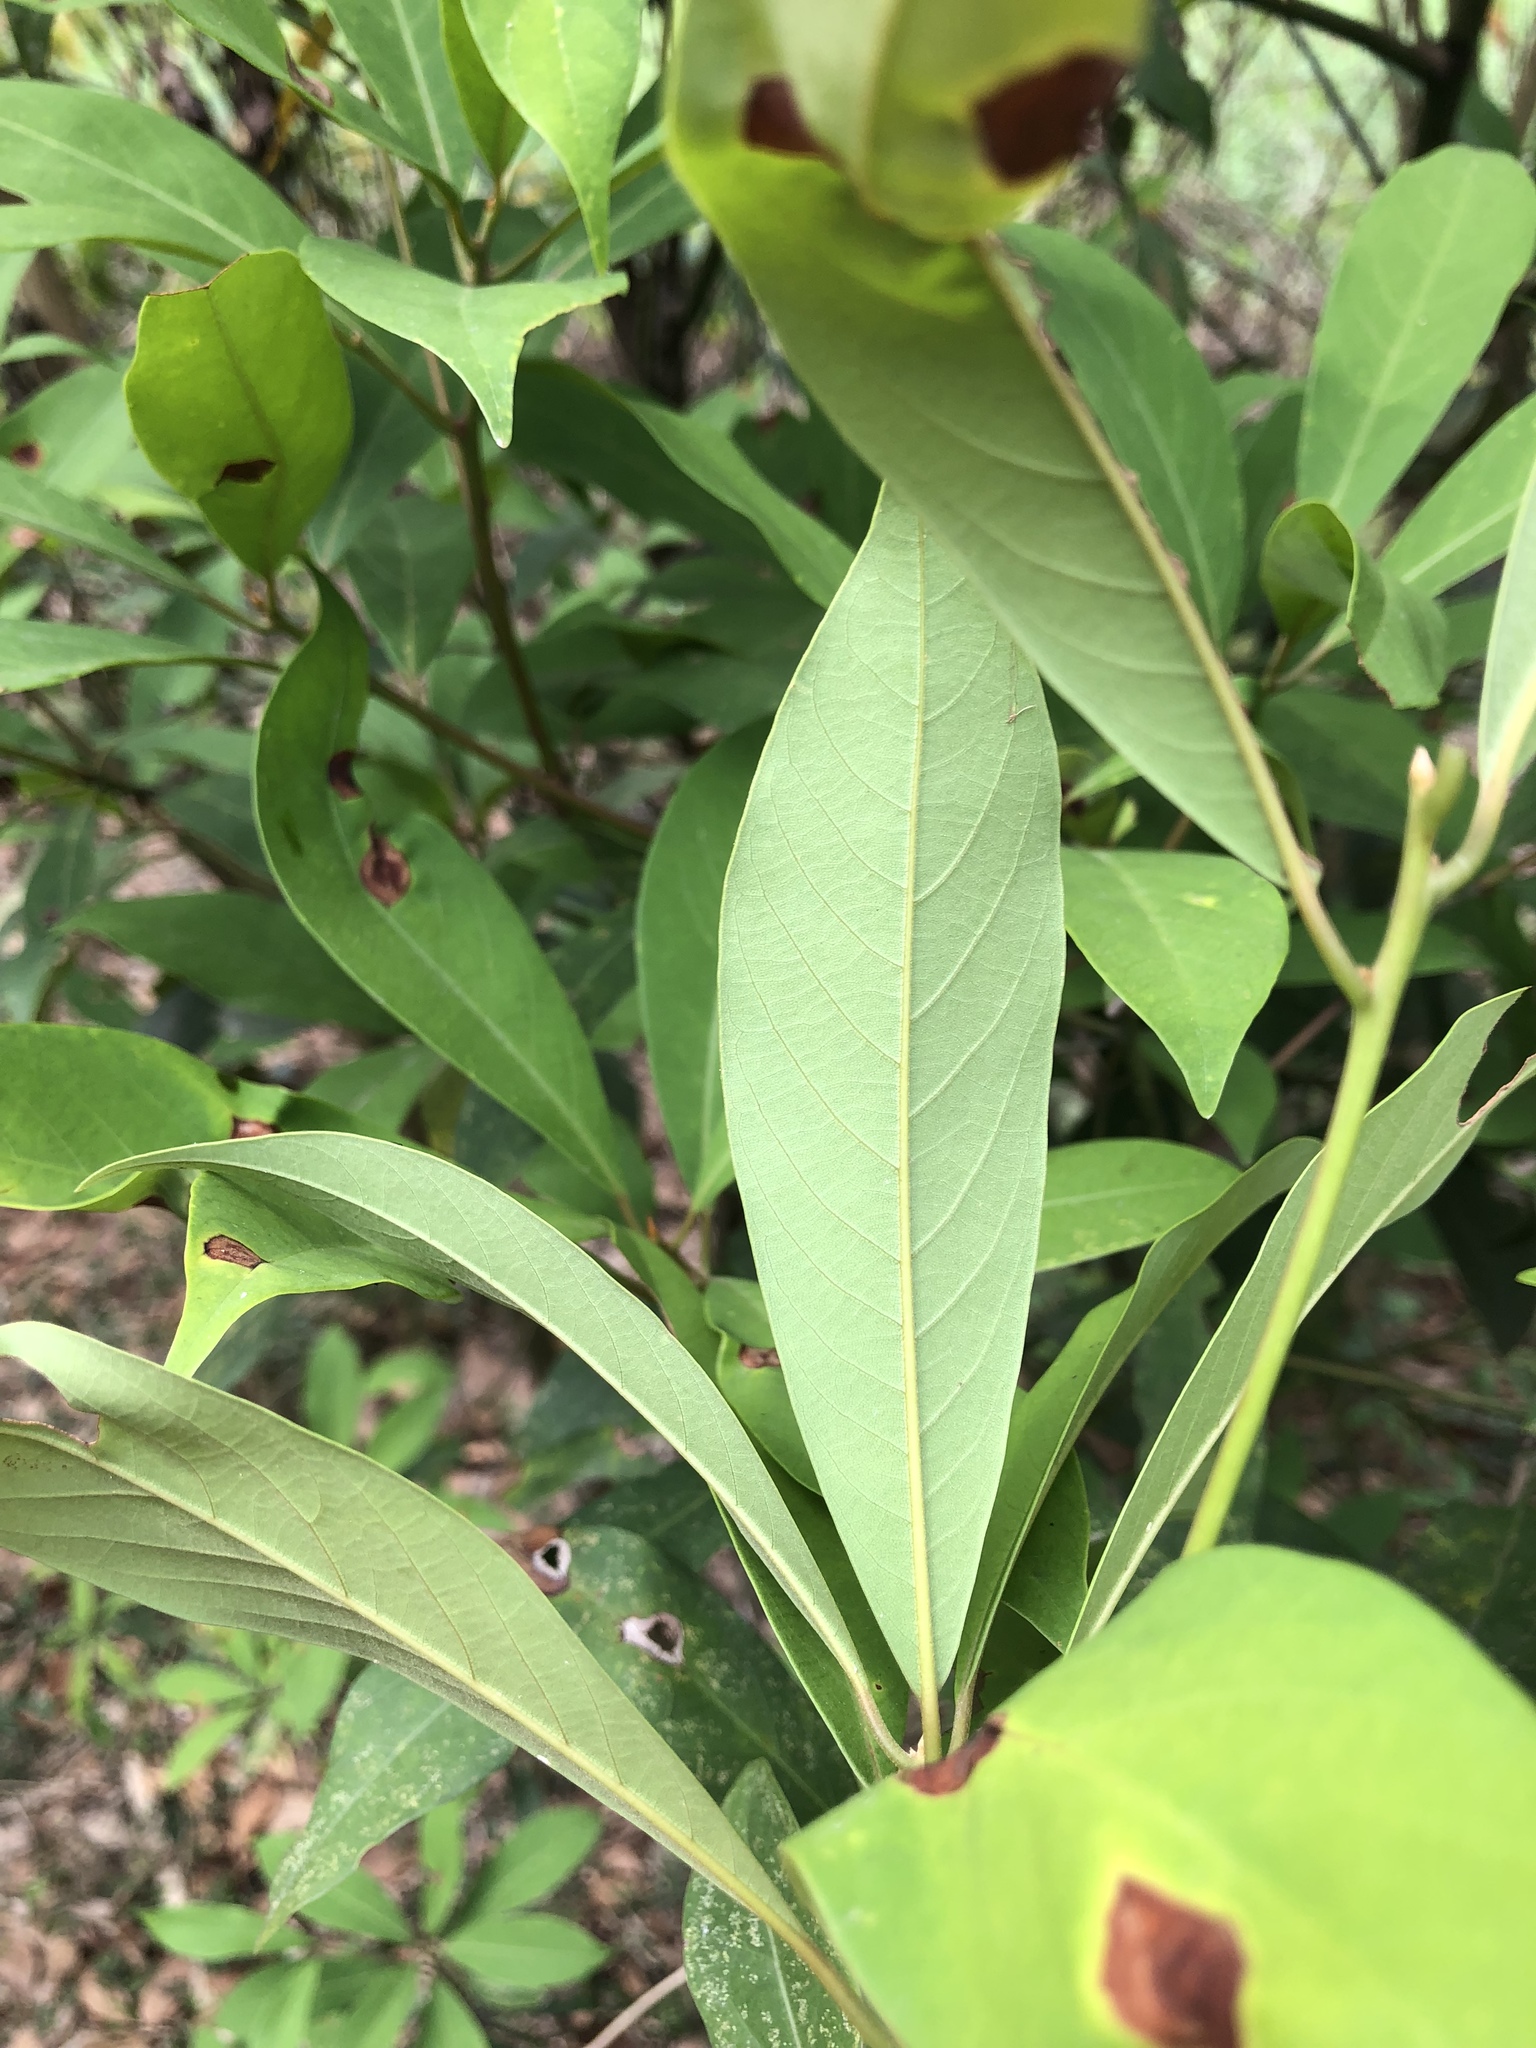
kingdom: Plantae
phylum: Tracheophyta
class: Magnoliopsida
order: Laurales
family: Lauraceae
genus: Machilus
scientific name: Machilus zuihoensis
